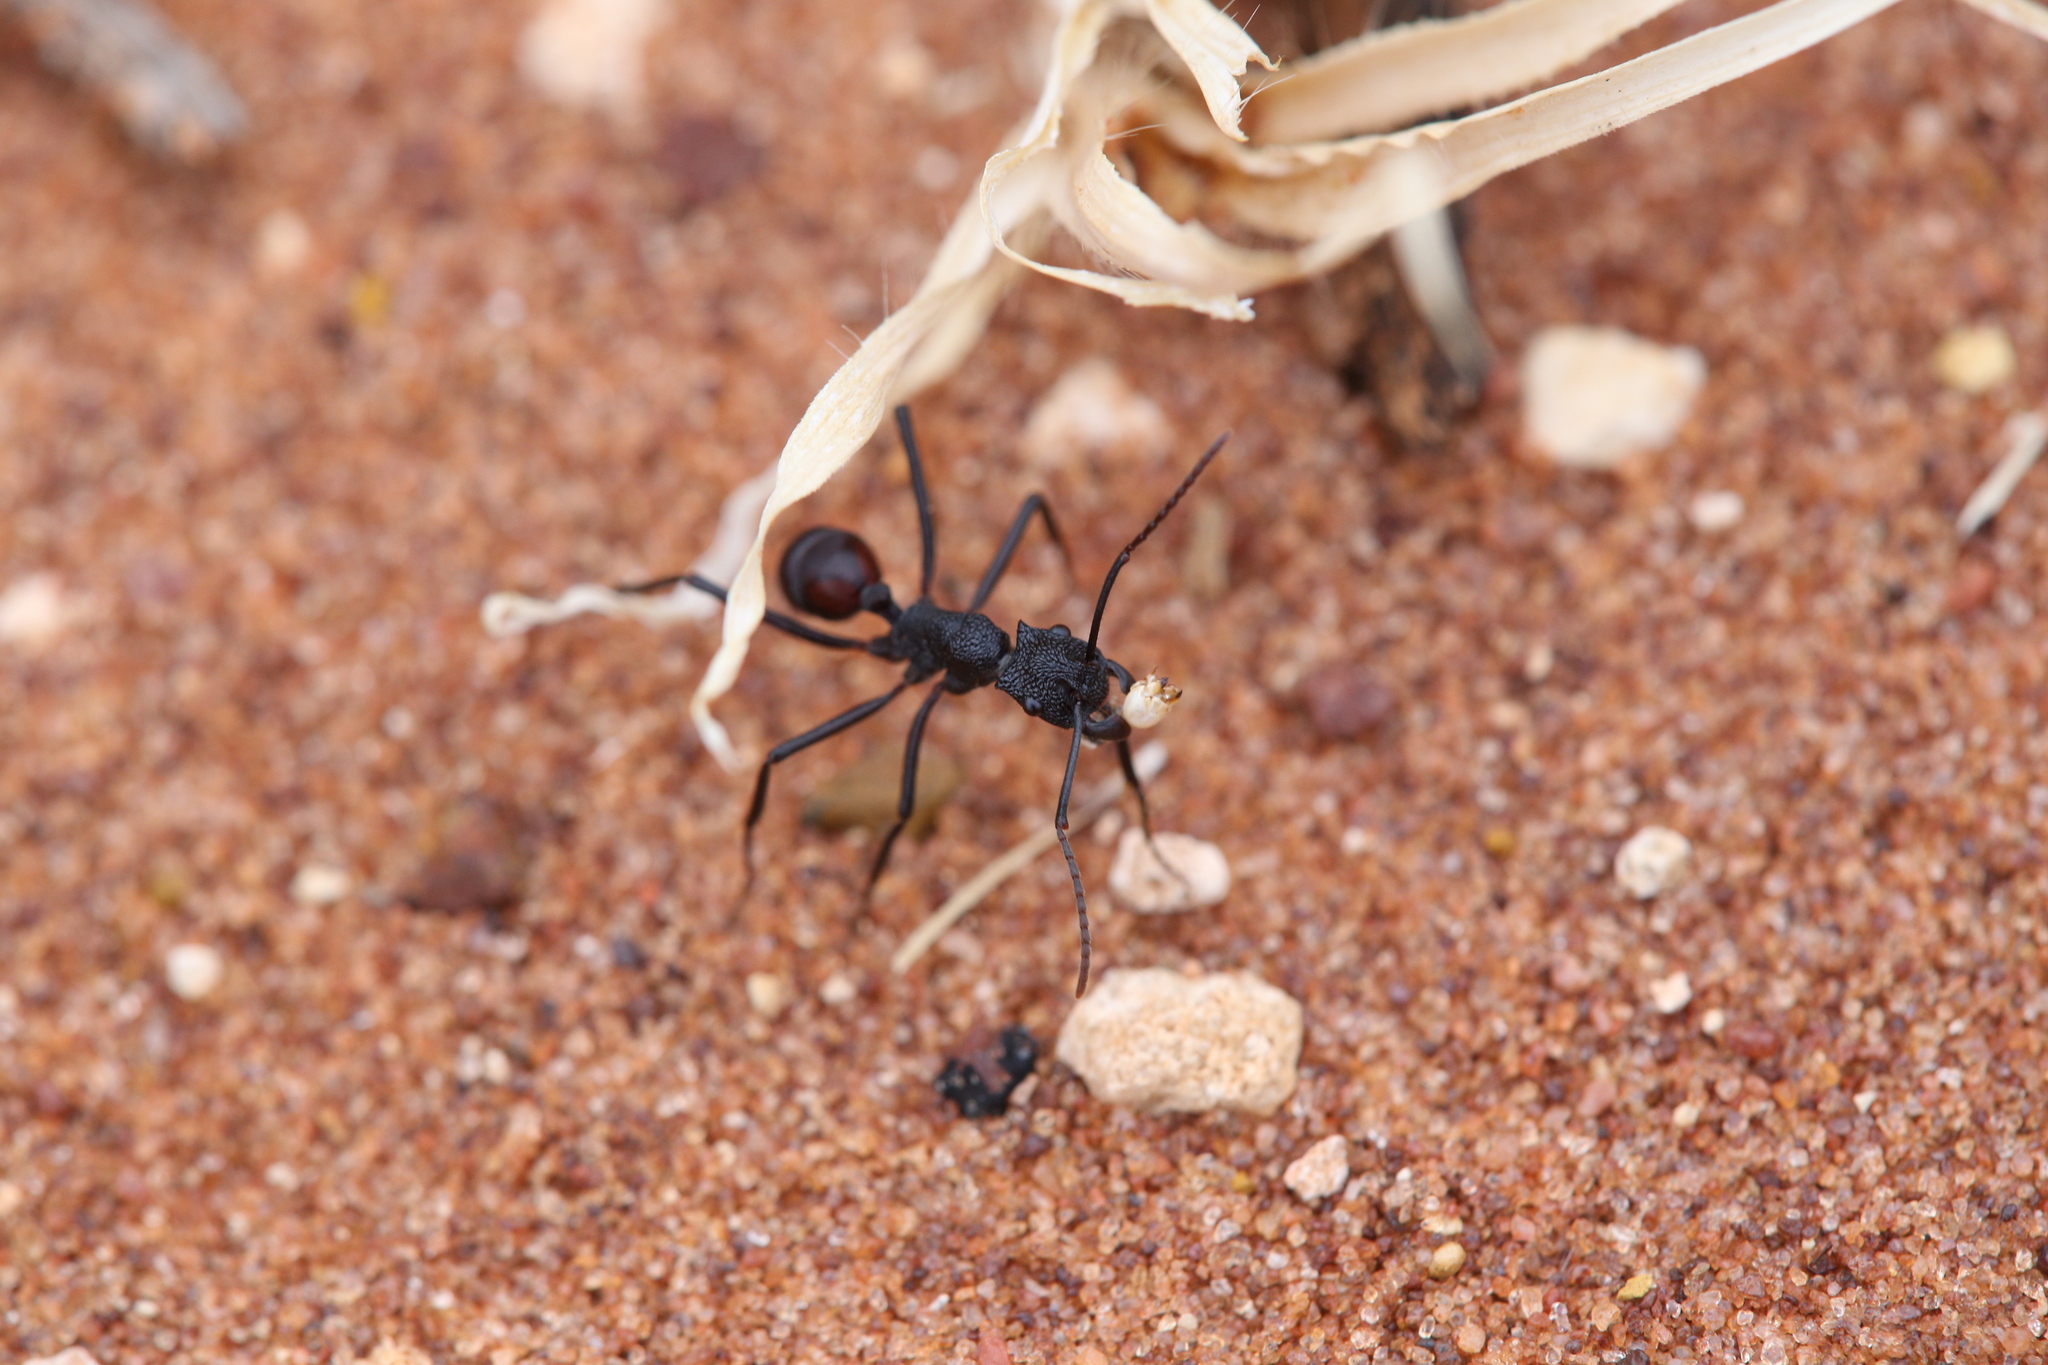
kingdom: Animalia
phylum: Arthropoda
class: Insecta
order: Hymenoptera
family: Formicidae
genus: Rhytidoponera
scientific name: Rhytidoponera taurus
